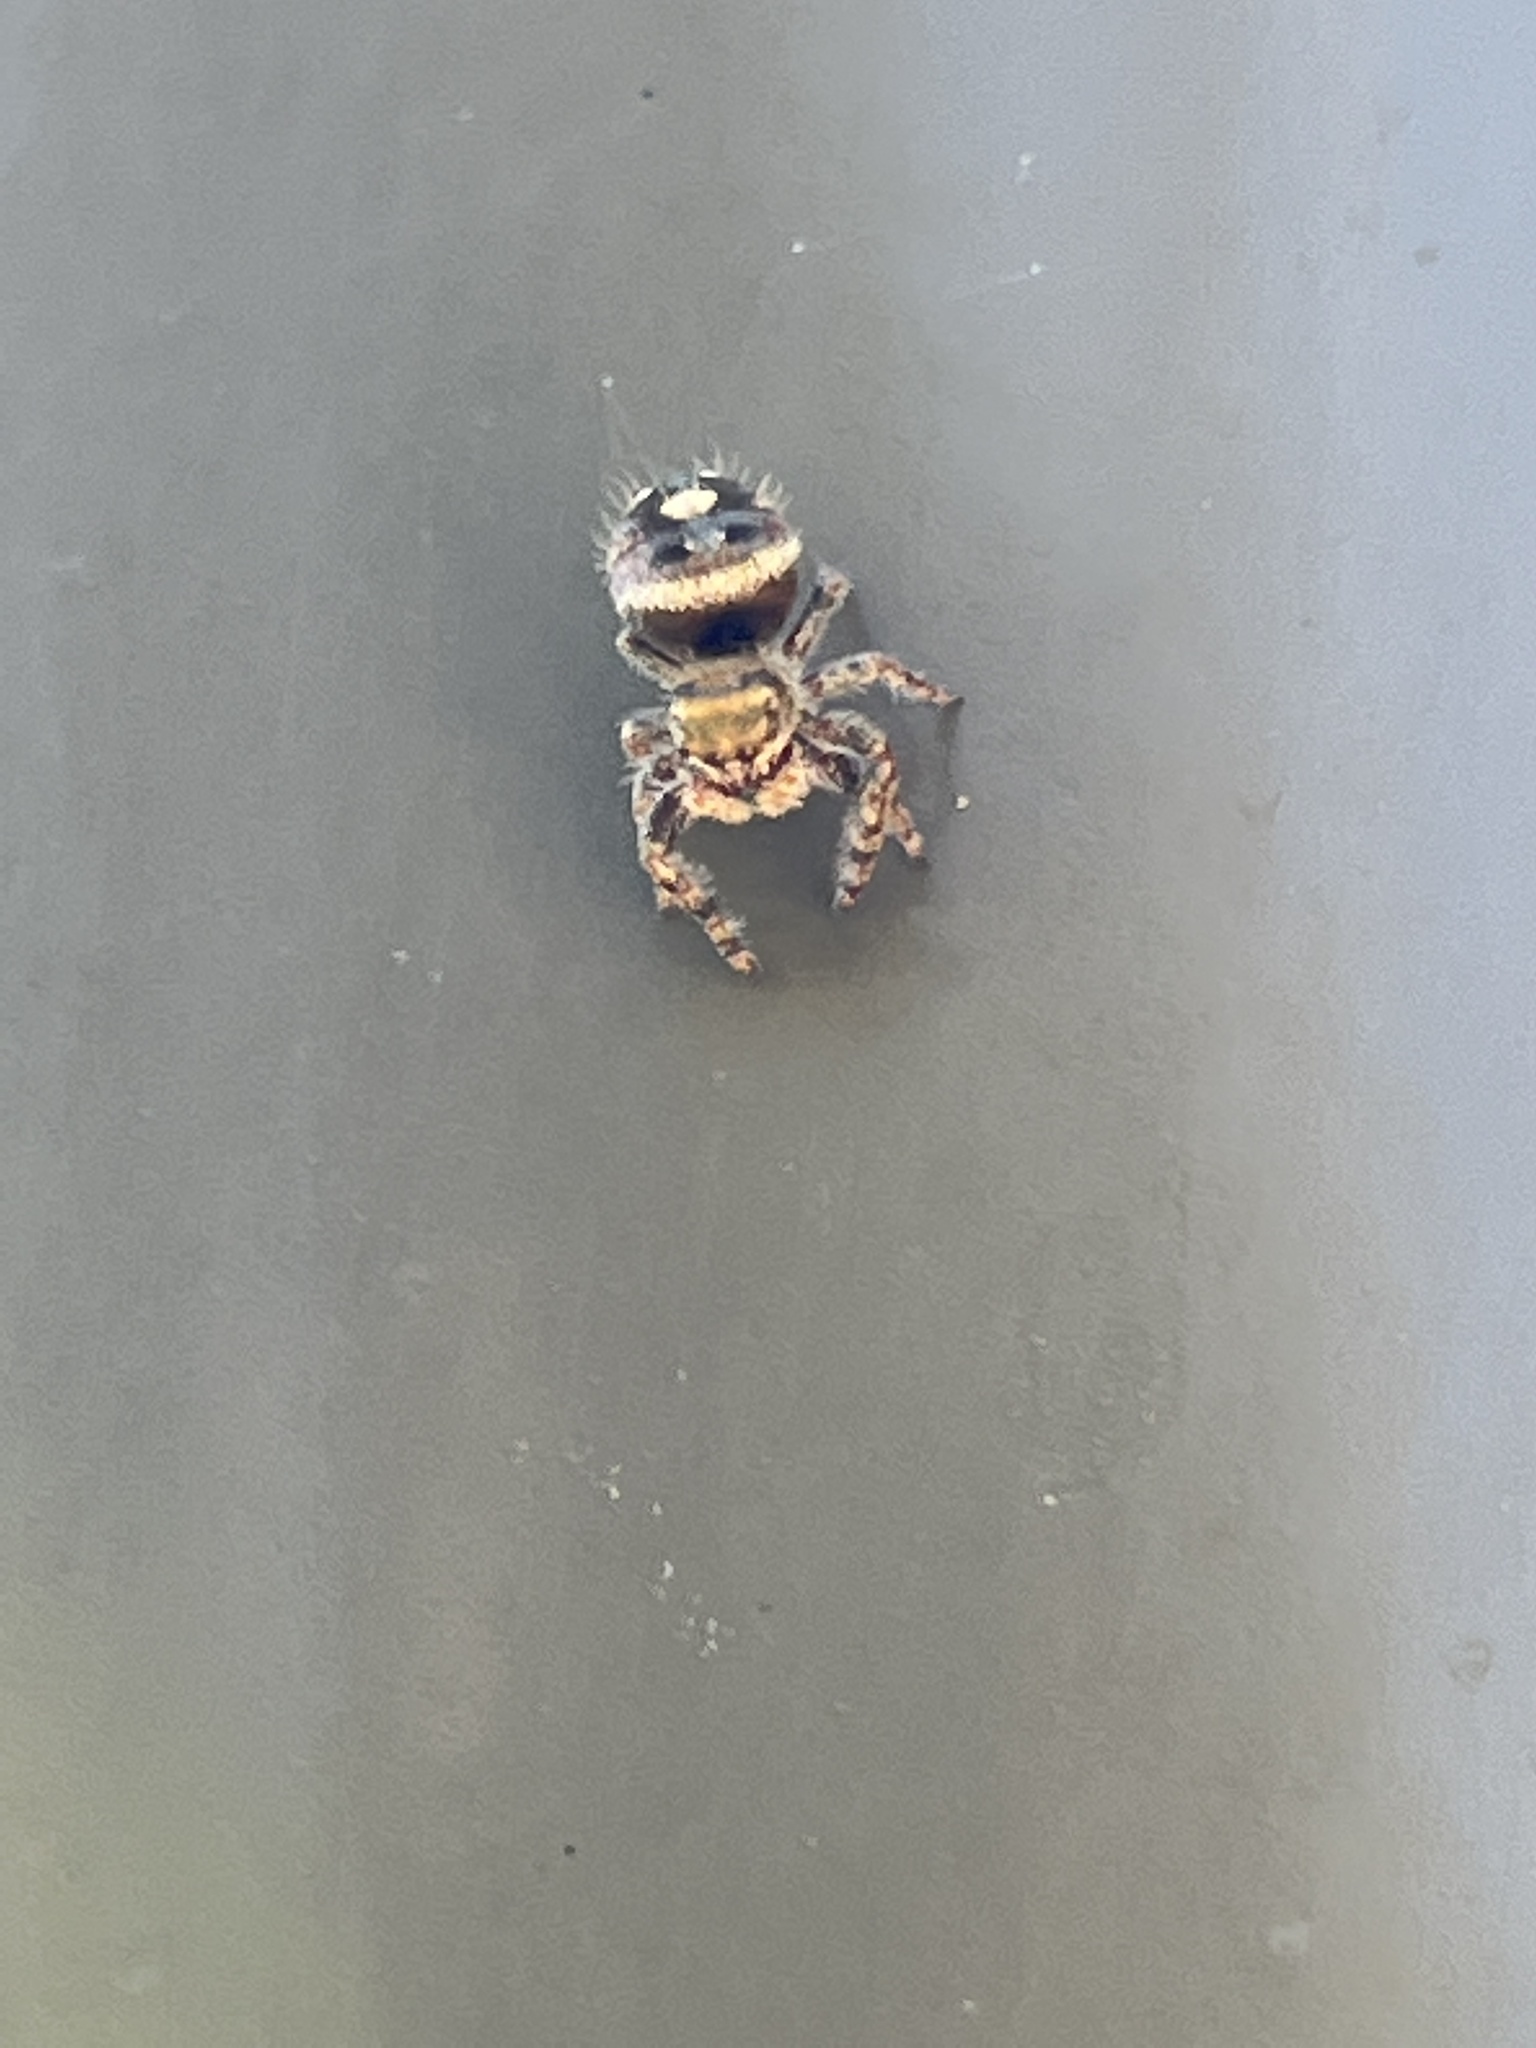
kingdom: Animalia
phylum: Arthropoda
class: Arachnida
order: Araneae
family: Salticidae
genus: Phidippus
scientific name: Phidippus audax
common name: Bold jumper
